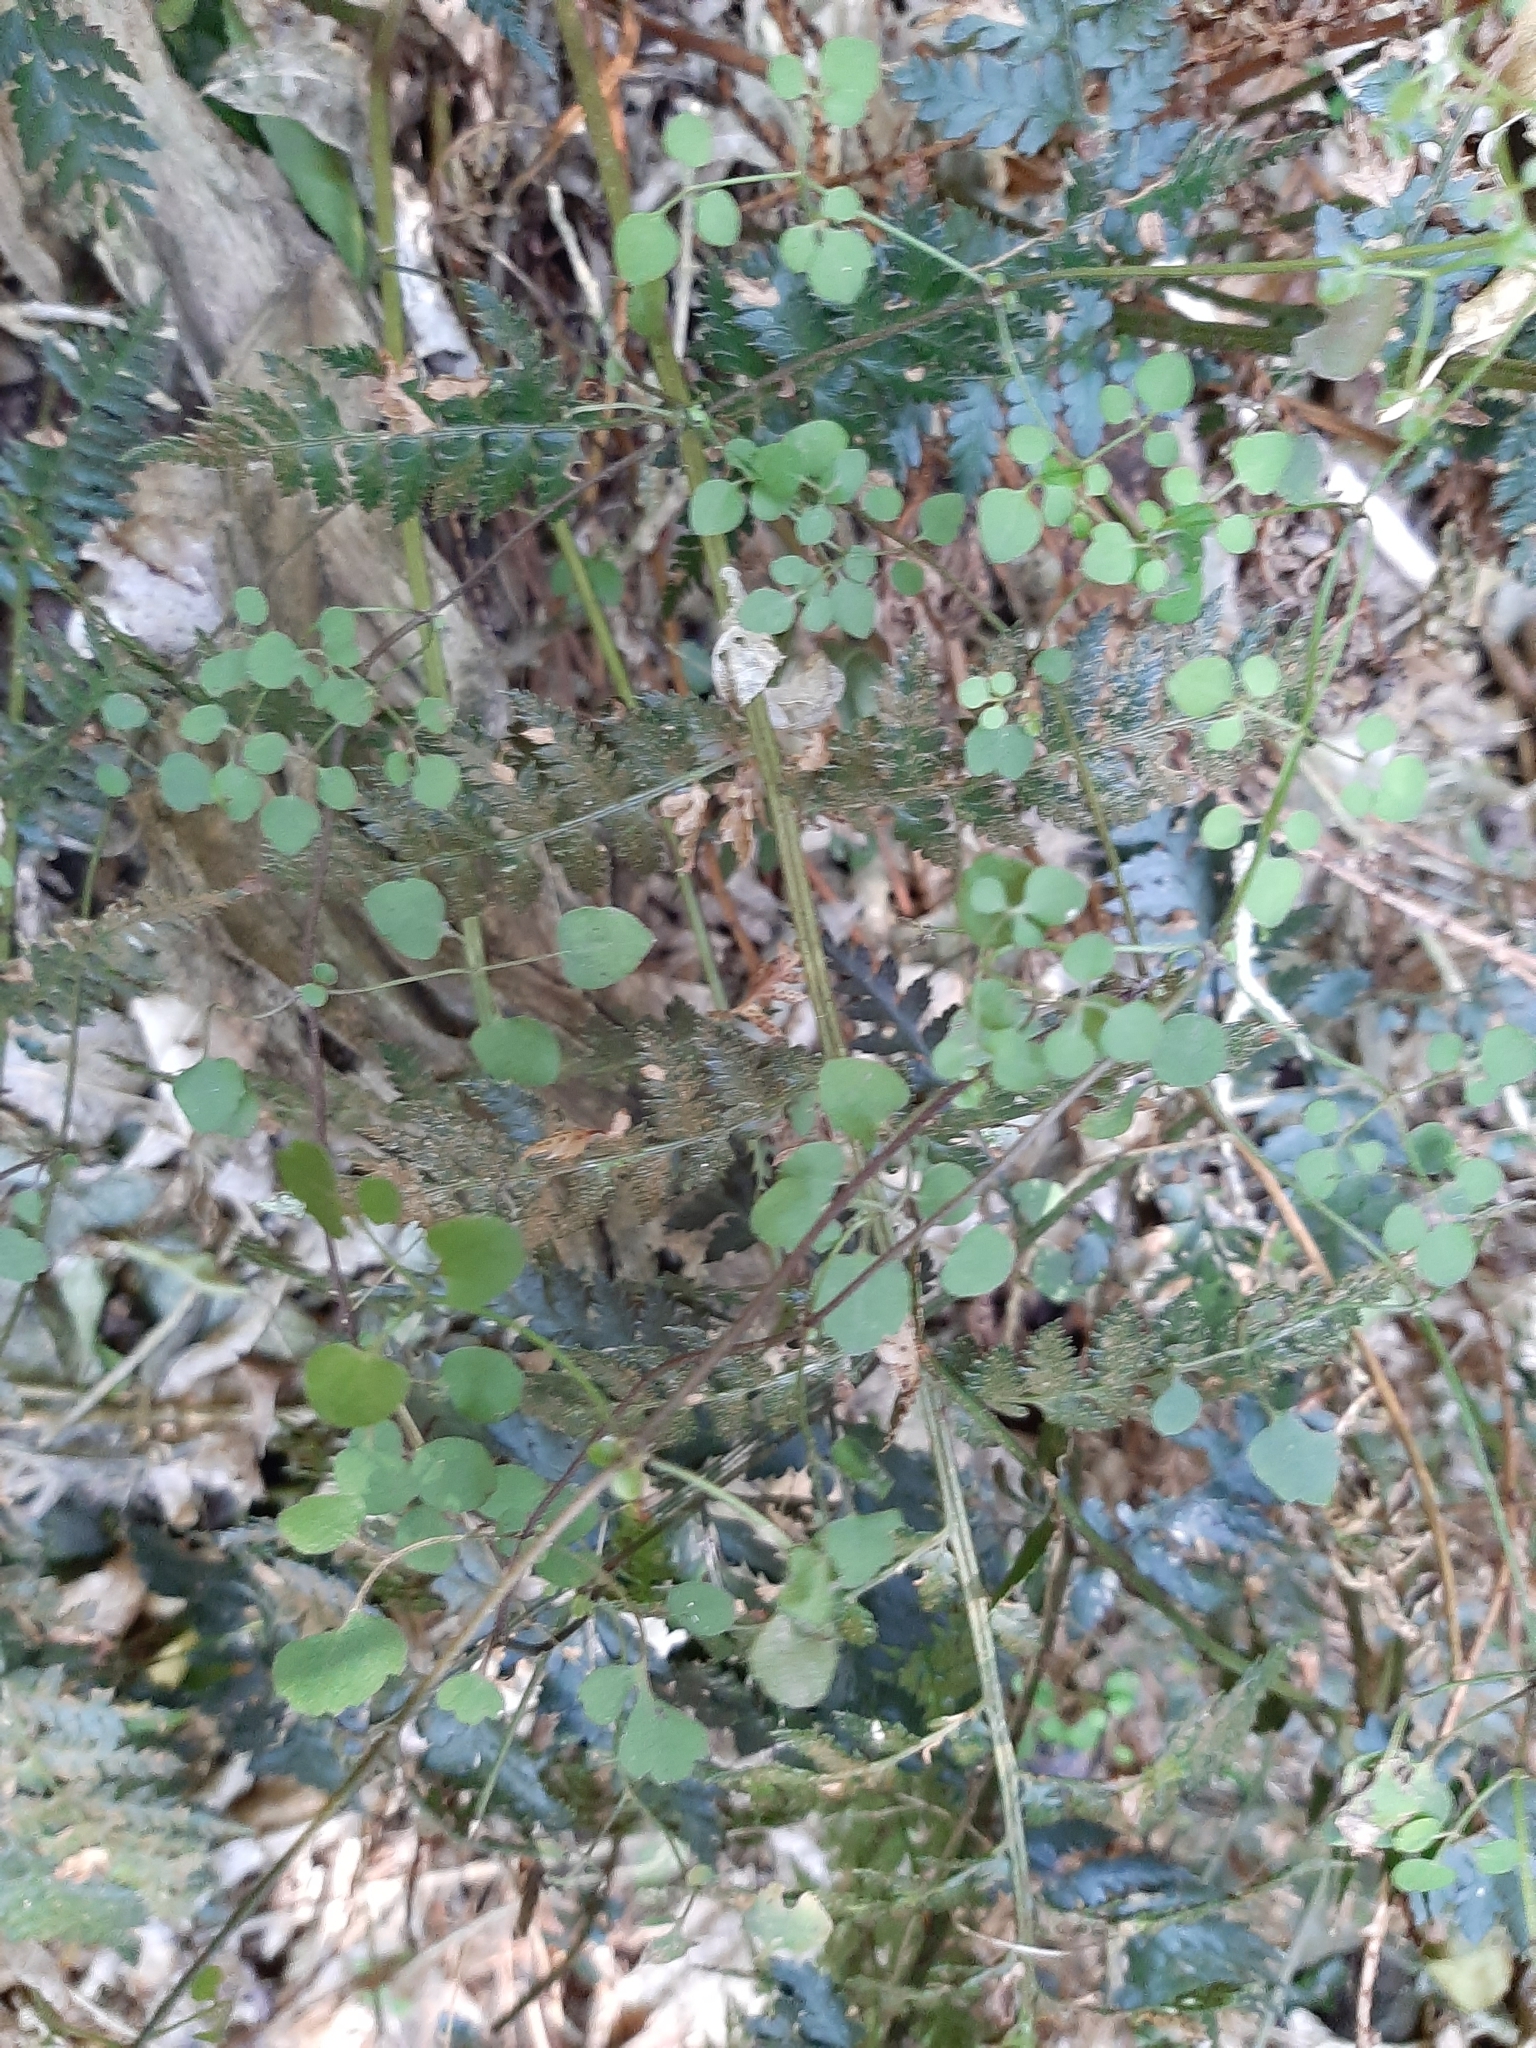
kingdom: Plantae
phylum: Tracheophyta
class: Magnoliopsida
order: Ranunculales
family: Ranunculaceae
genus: Clematis
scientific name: Clematis foetida
